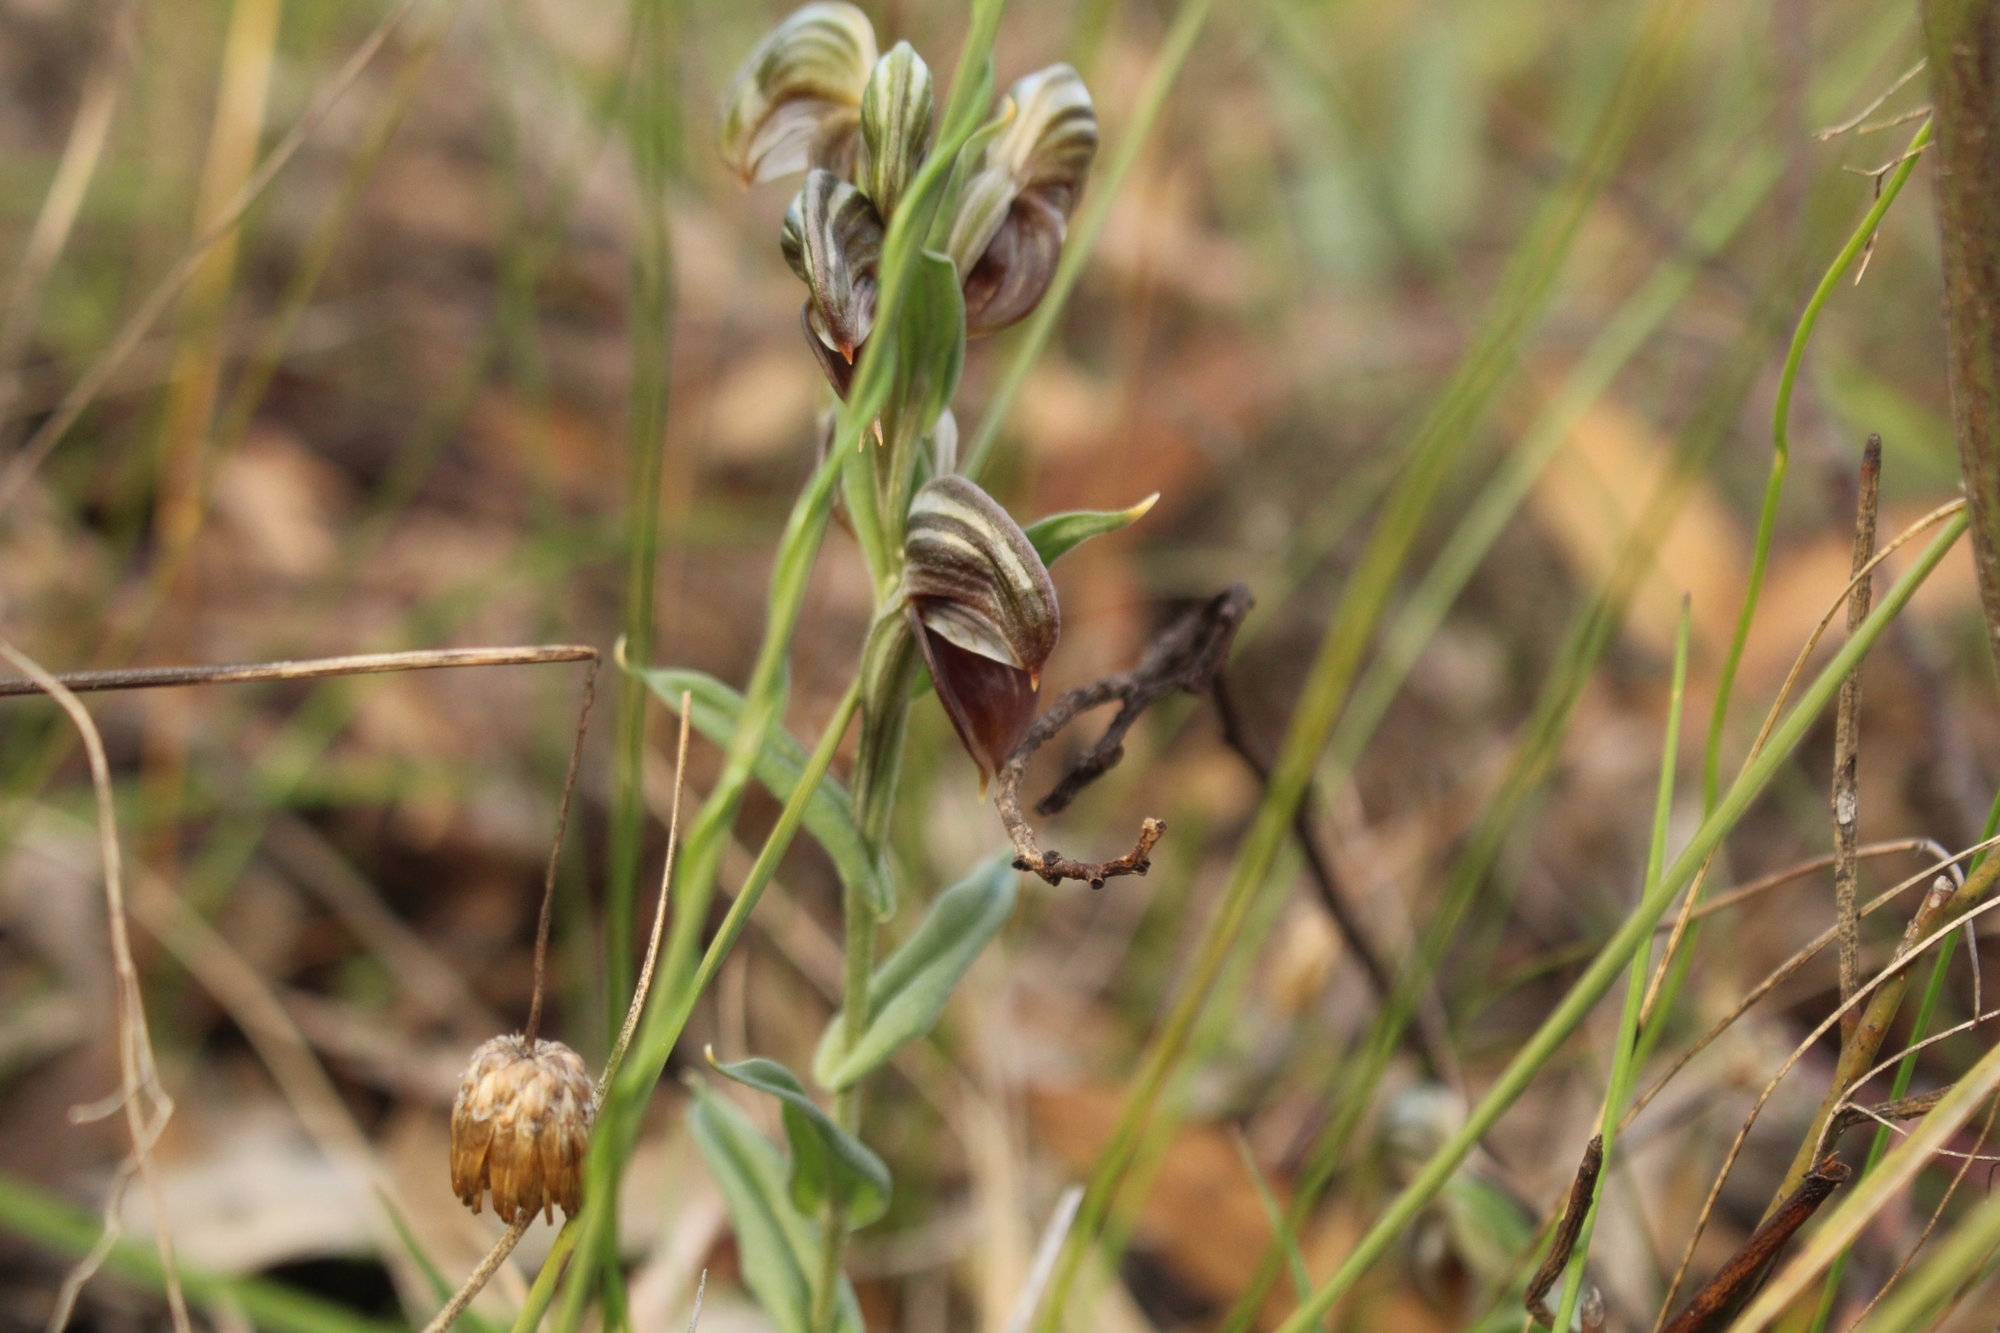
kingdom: Plantae
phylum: Tracheophyta
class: Liliopsida
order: Asparagales
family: Orchidaceae
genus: Pterostylis
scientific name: Pterostylis sanguinea
